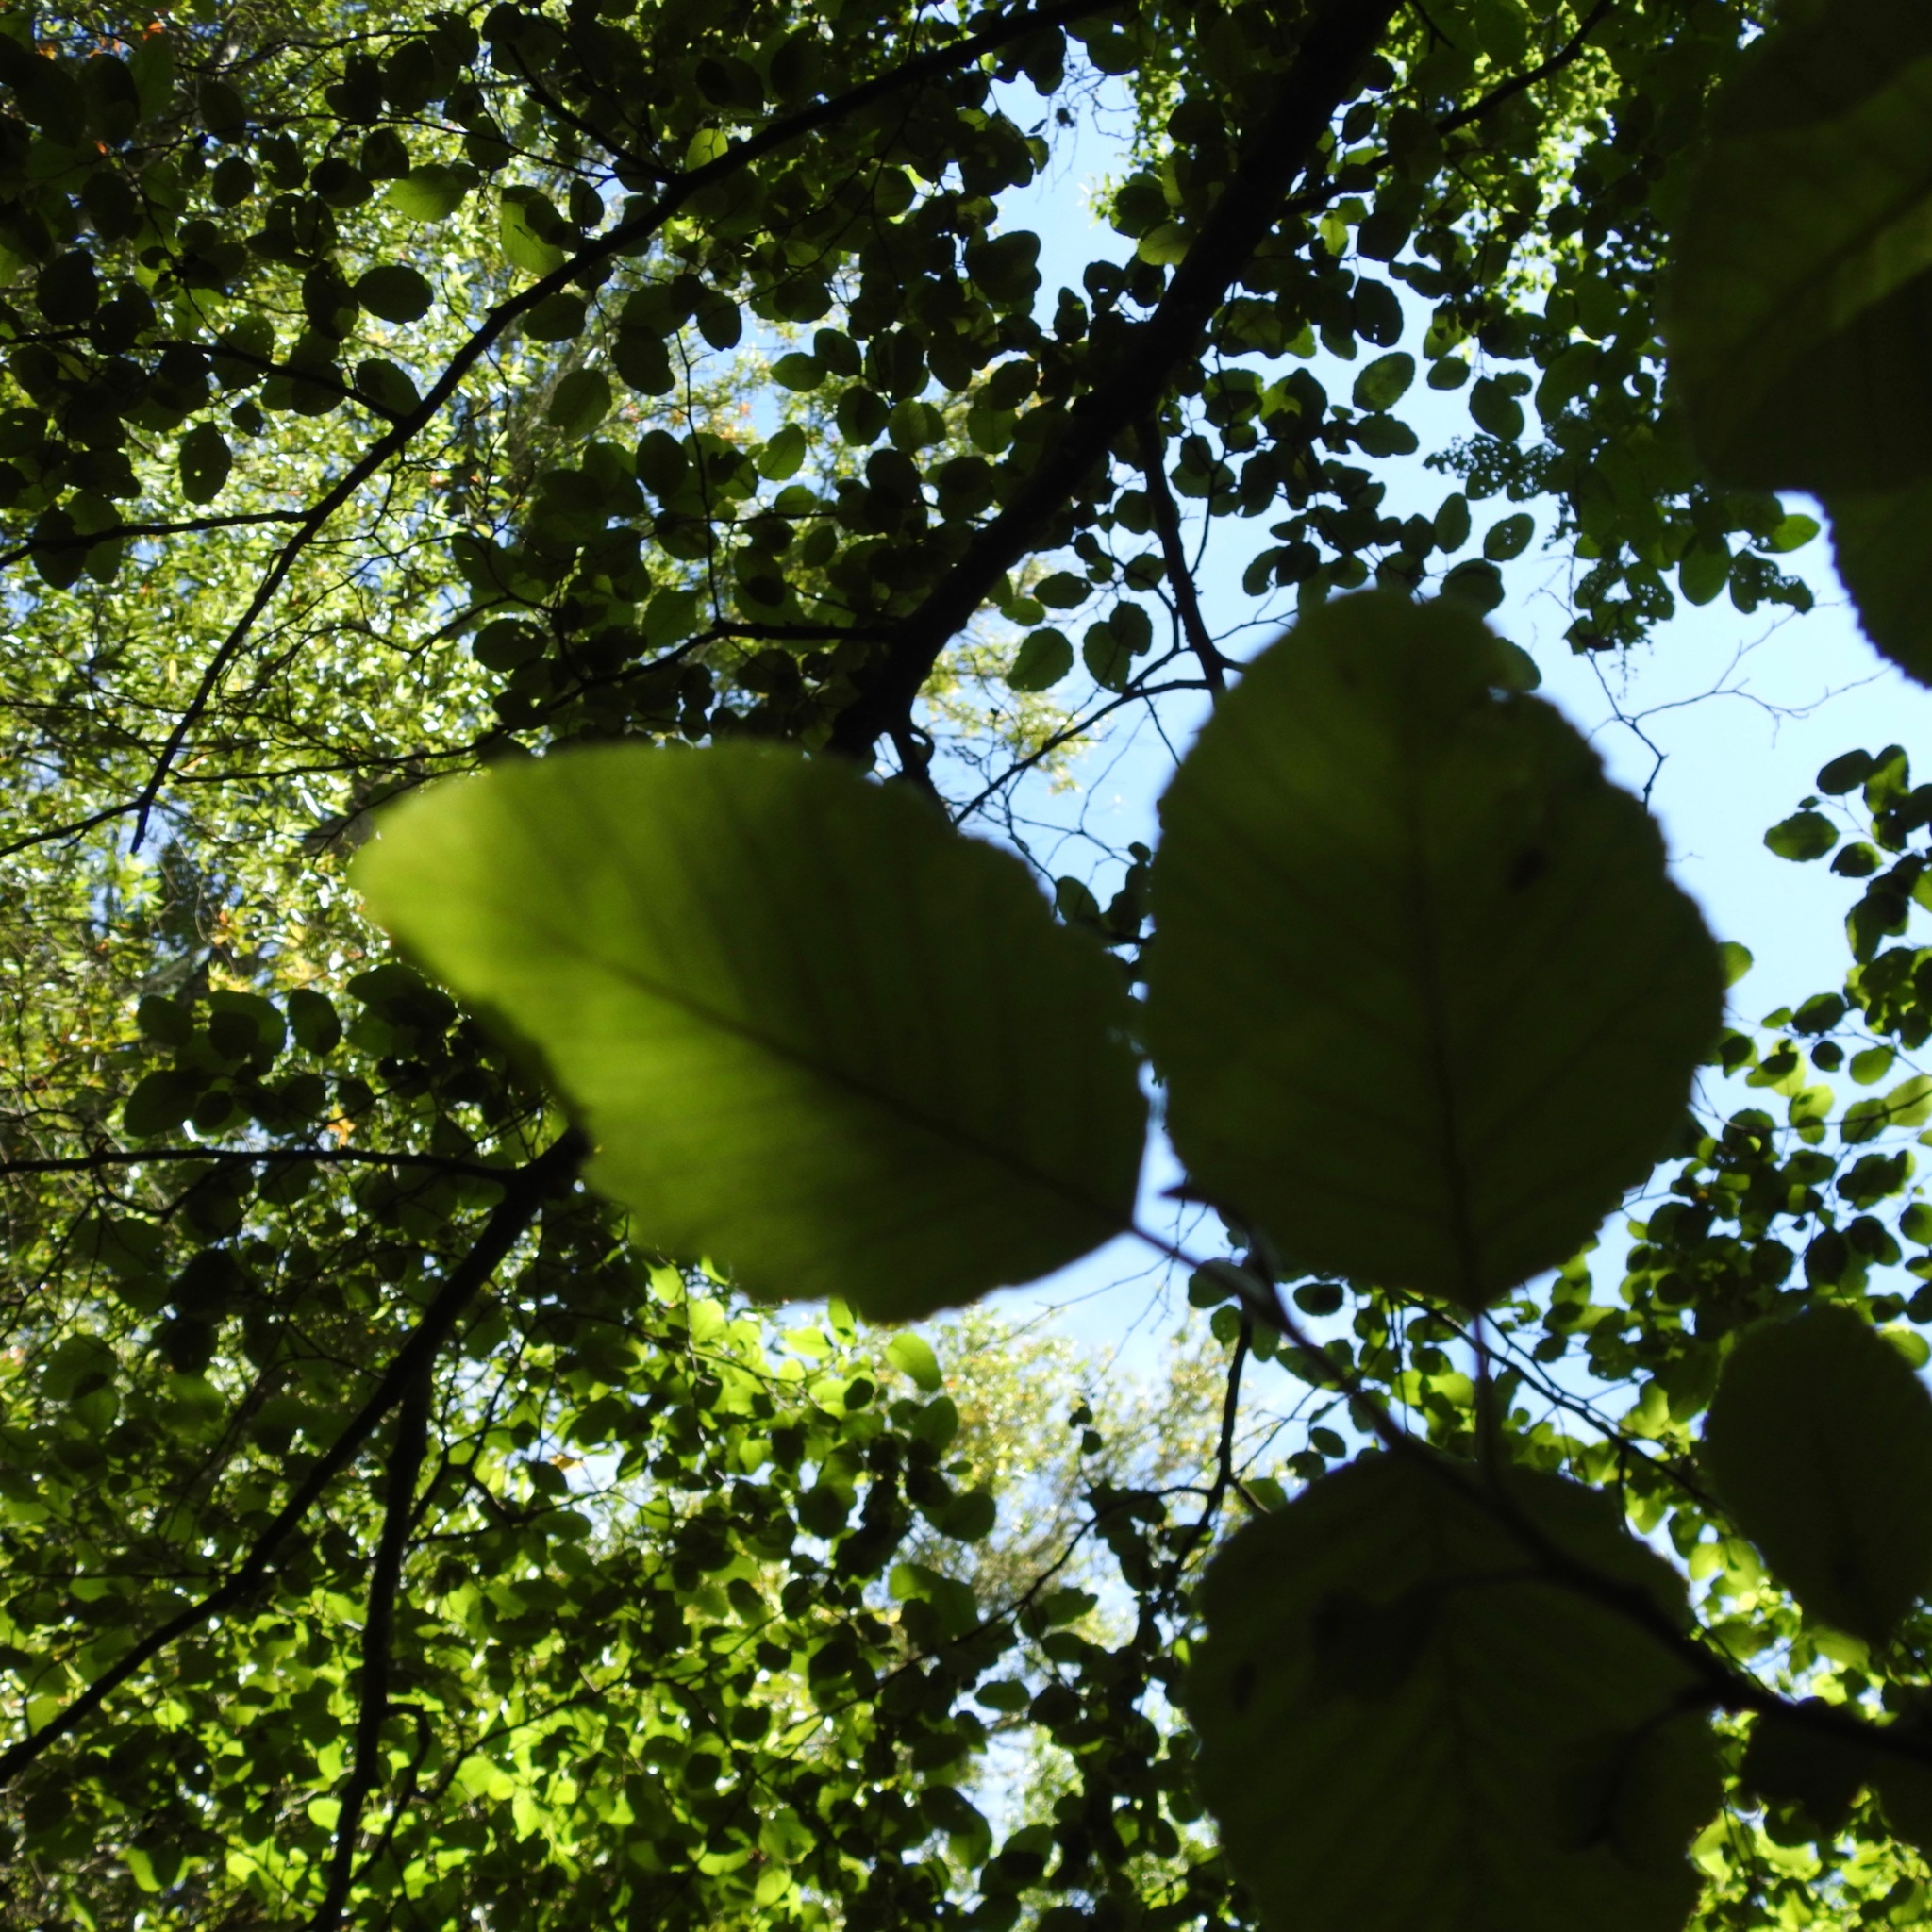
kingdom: Plantae
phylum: Tracheophyta
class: Magnoliopsida
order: Fagales
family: Betulaceae
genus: Alnus
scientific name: Alnus rhombifolia
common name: California alder
